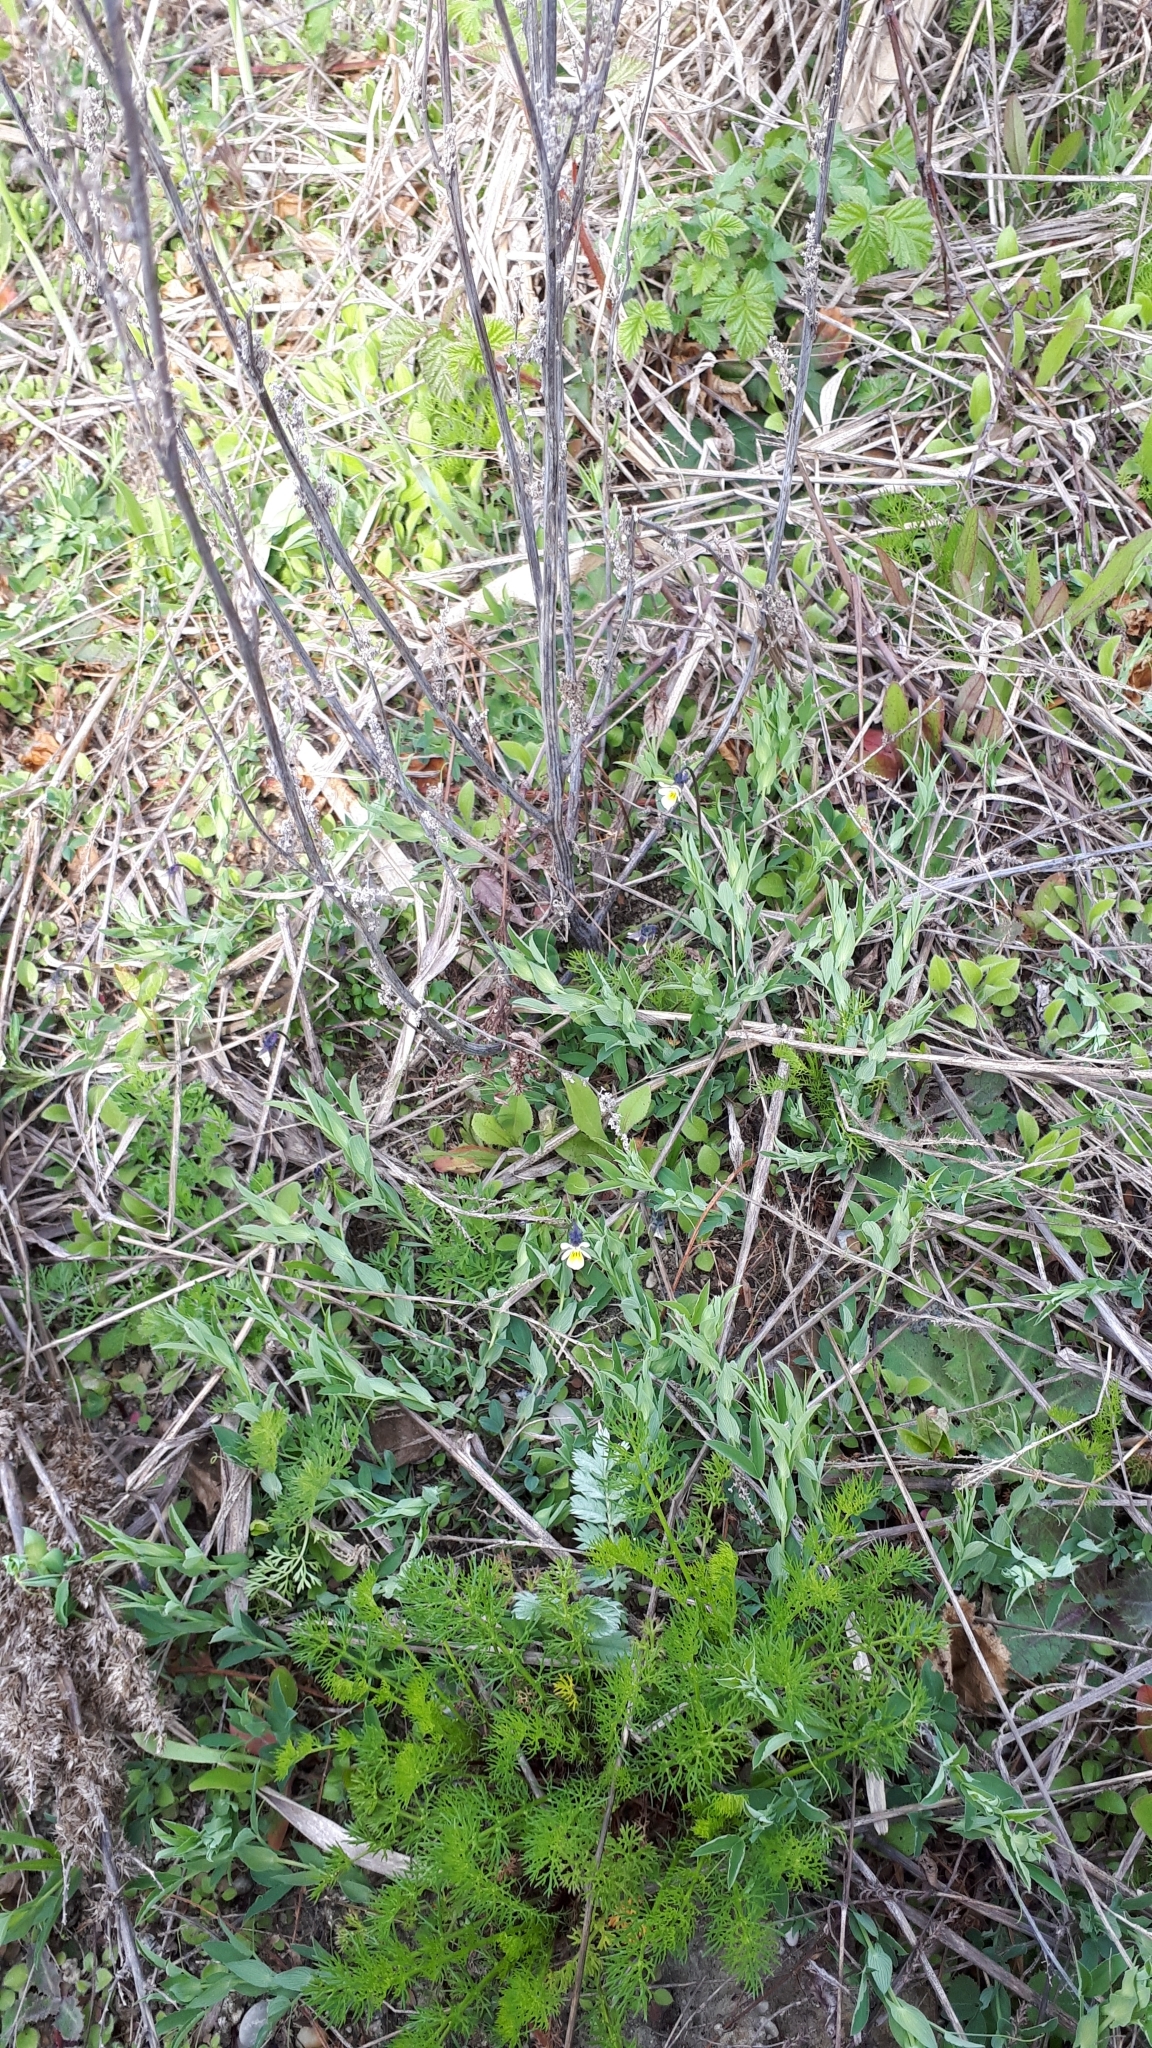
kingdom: Plantae
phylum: Tracheophyta
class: Magnoliopsida
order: Malpighiales
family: Violaceae
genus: Viola
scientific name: Viola arvensis
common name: Field pansy
